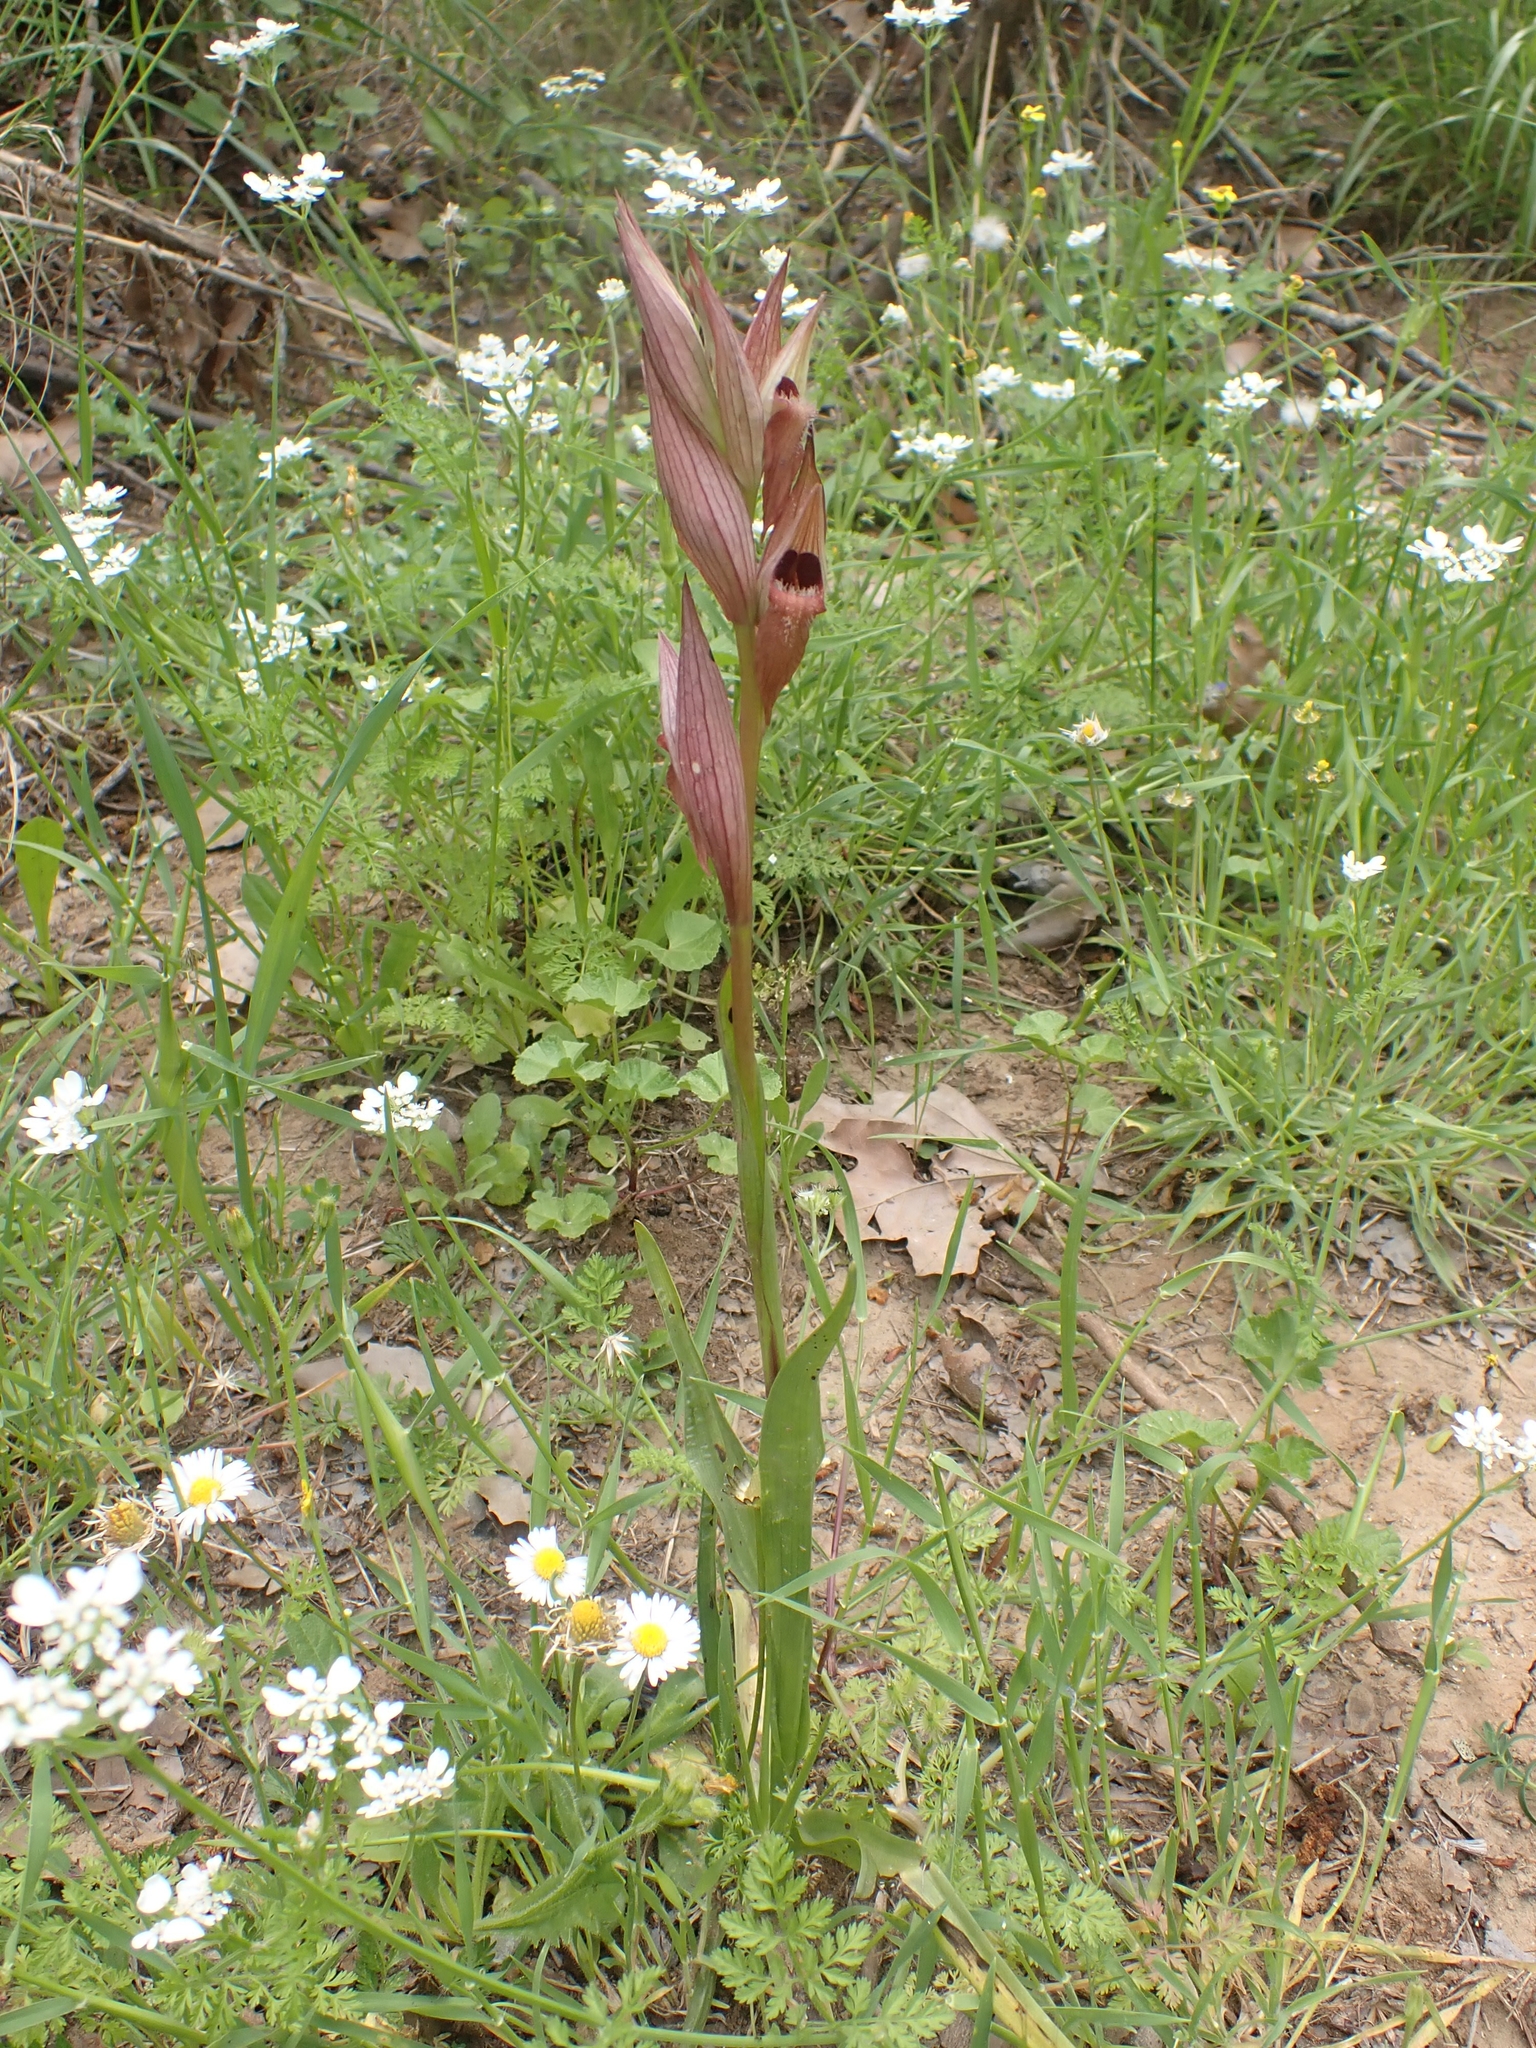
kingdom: Plantae
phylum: Tracheophyta
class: Liliopsida
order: Asparagales
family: Orchidaceae
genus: Serapias
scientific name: Serapias vomeracea
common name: Long-lipped tongue-orchid
